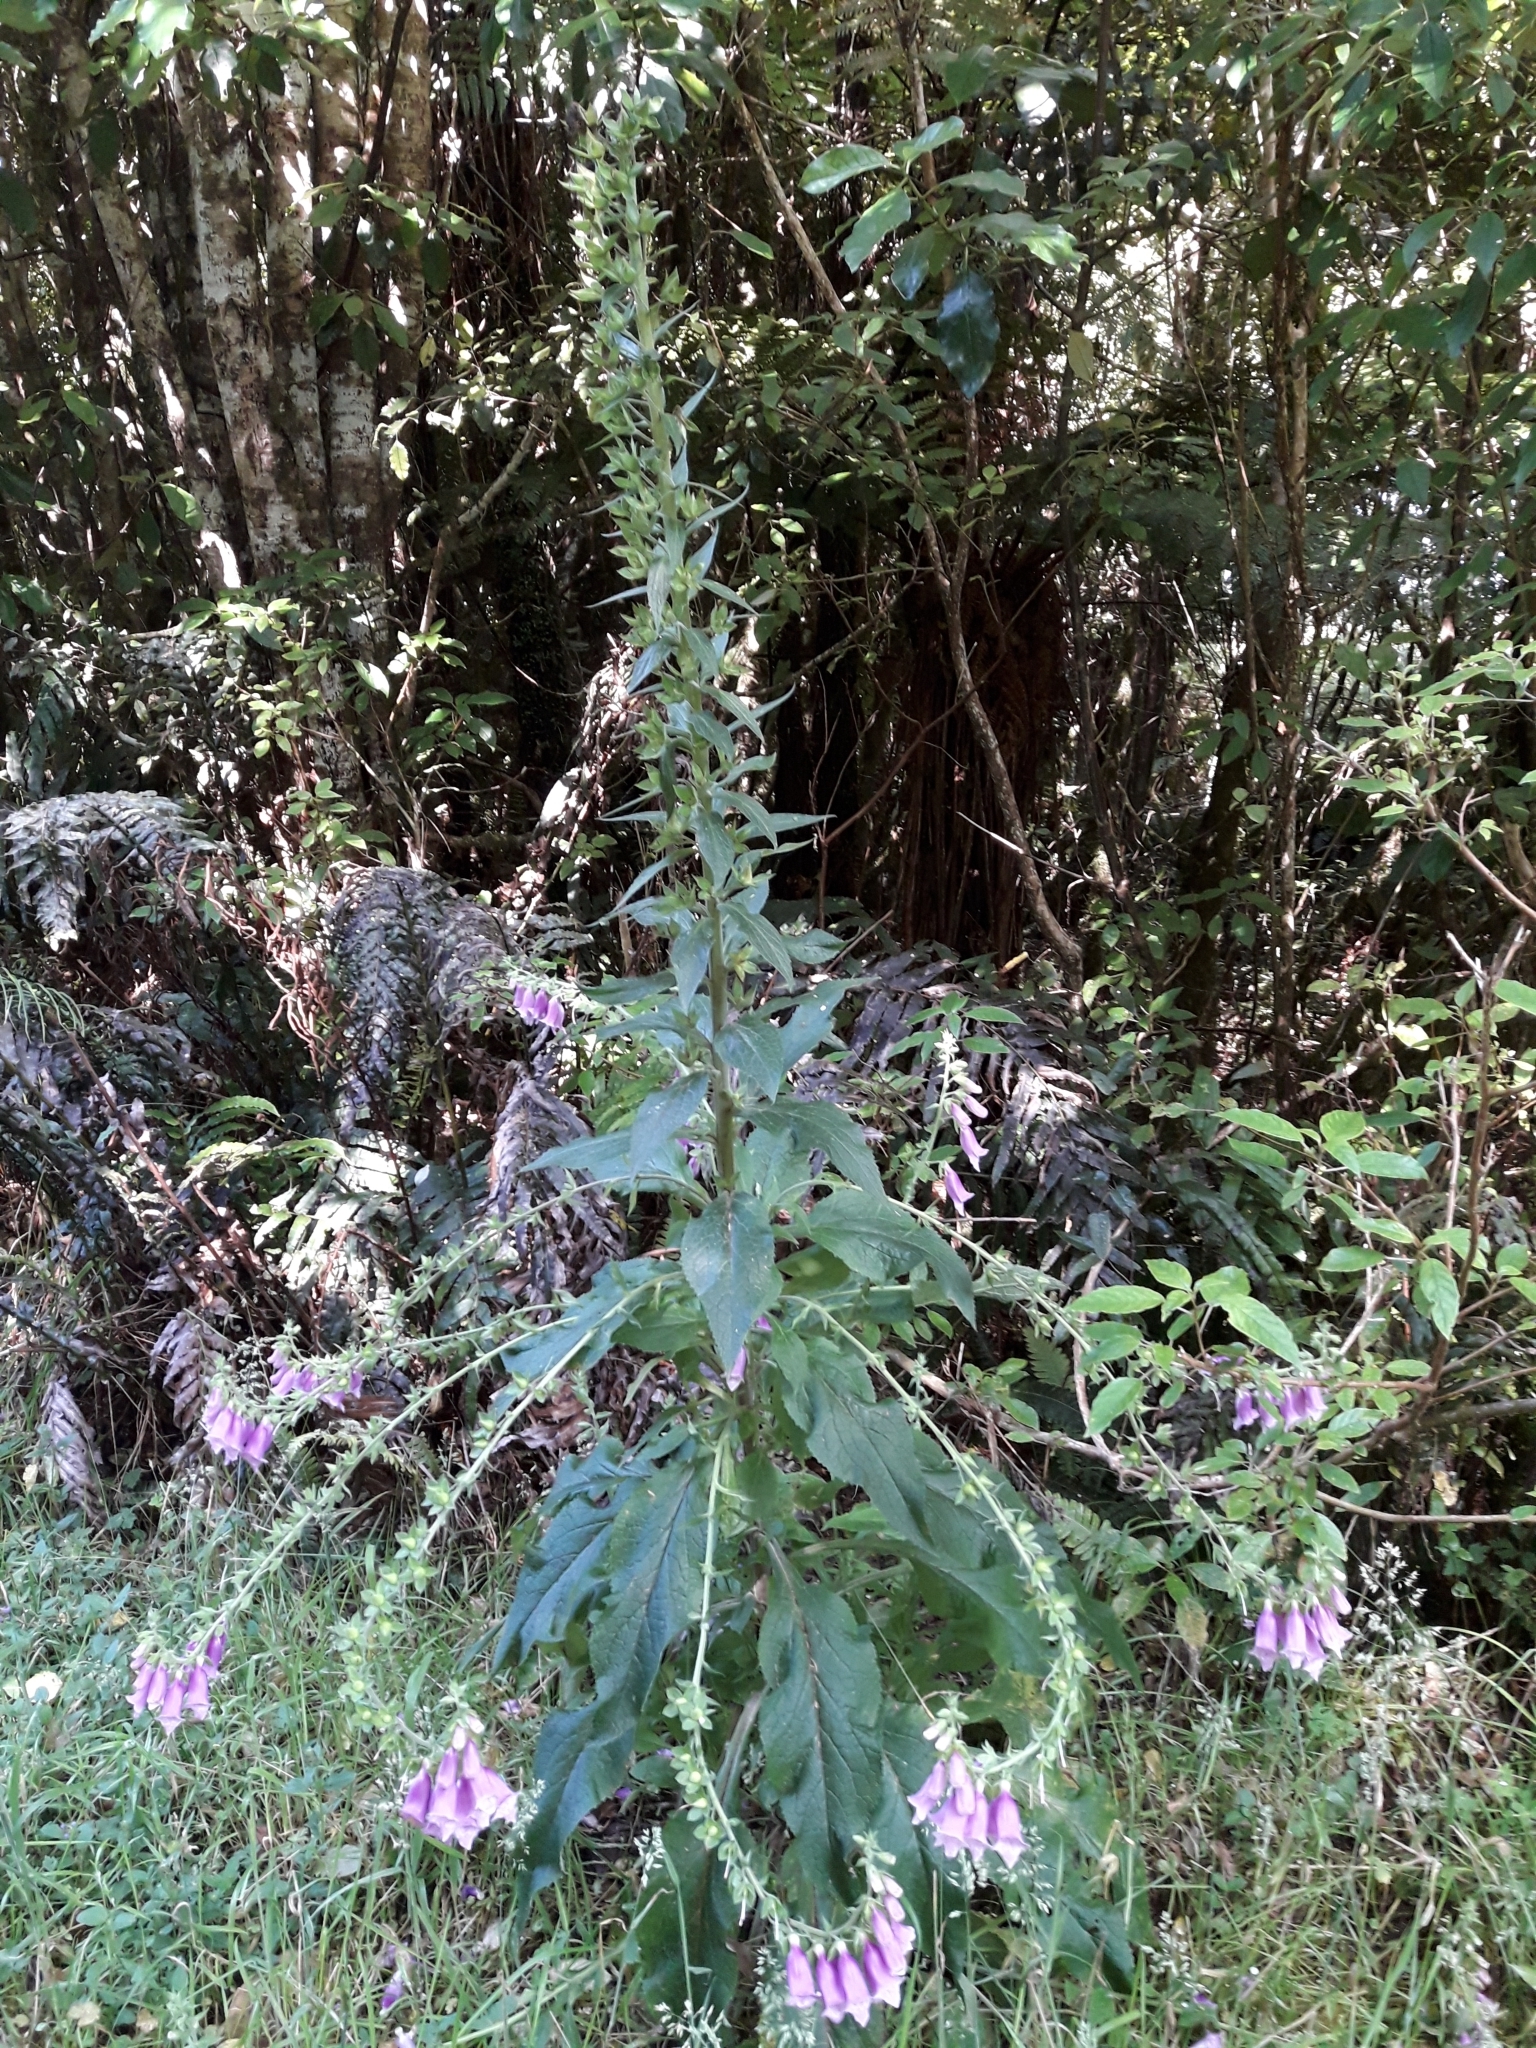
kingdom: Plantae
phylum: Tracheophyta
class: Magnoliopsida
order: Lamiales
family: Plantaginaceae
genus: Digitalis
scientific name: Digitalis purpurea
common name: Foxglove
